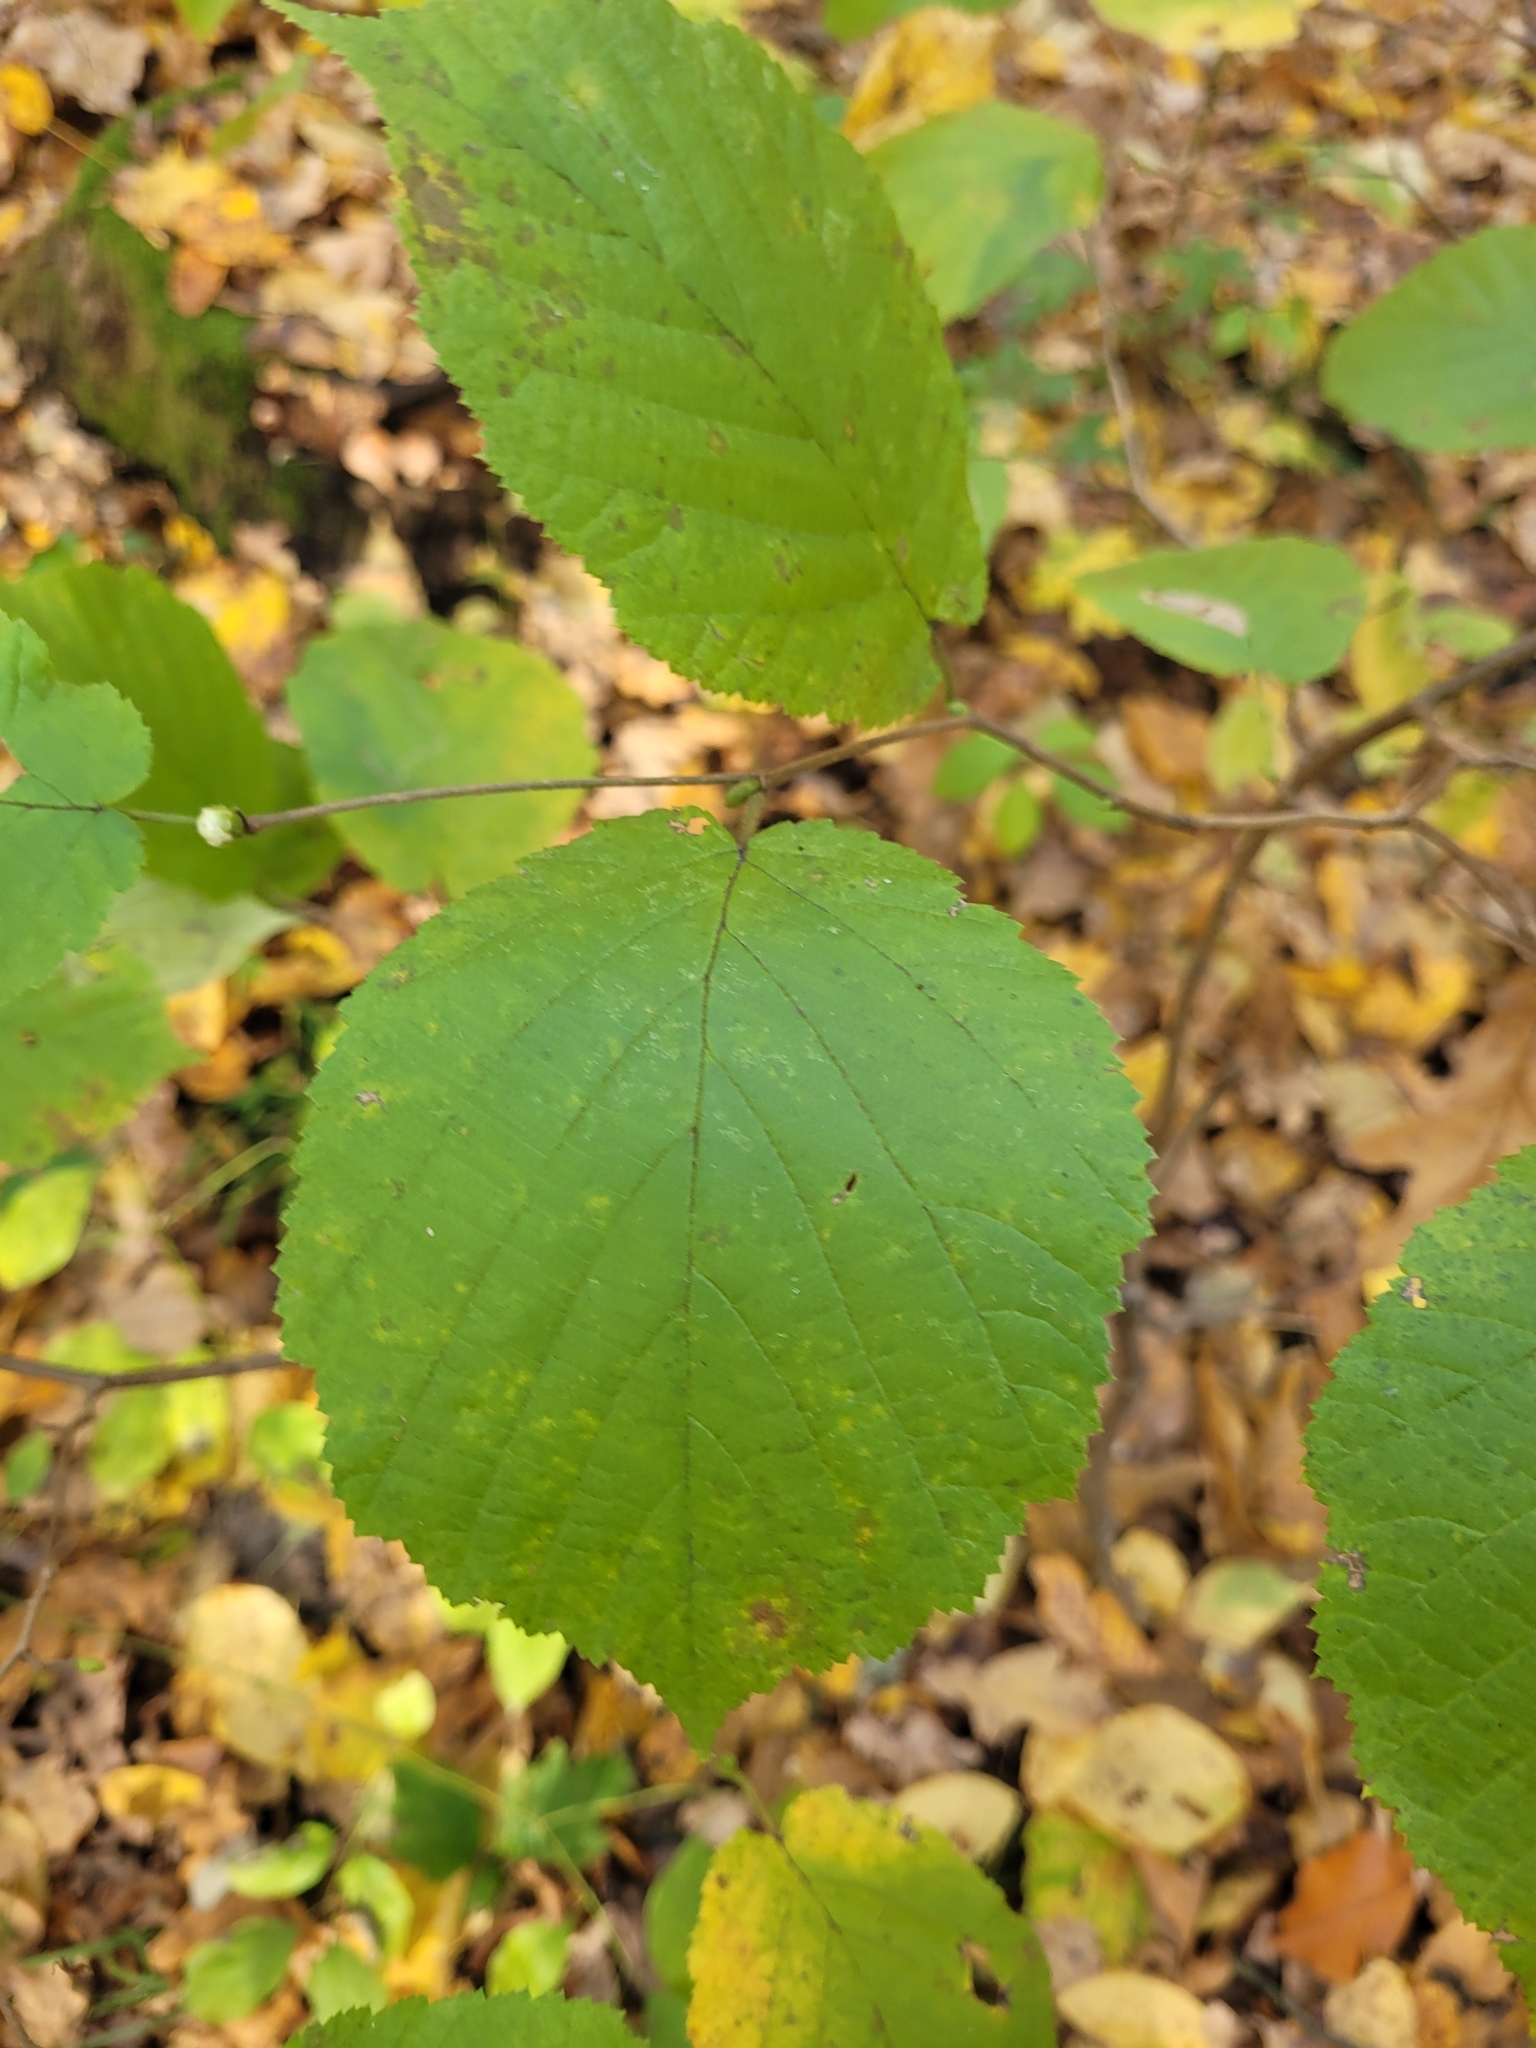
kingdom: Plantae
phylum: Tracheophyta
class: Magnoliopsida
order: Fagales
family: Betulaceae
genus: Corylus
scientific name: Corylus avellana
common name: European hazel
